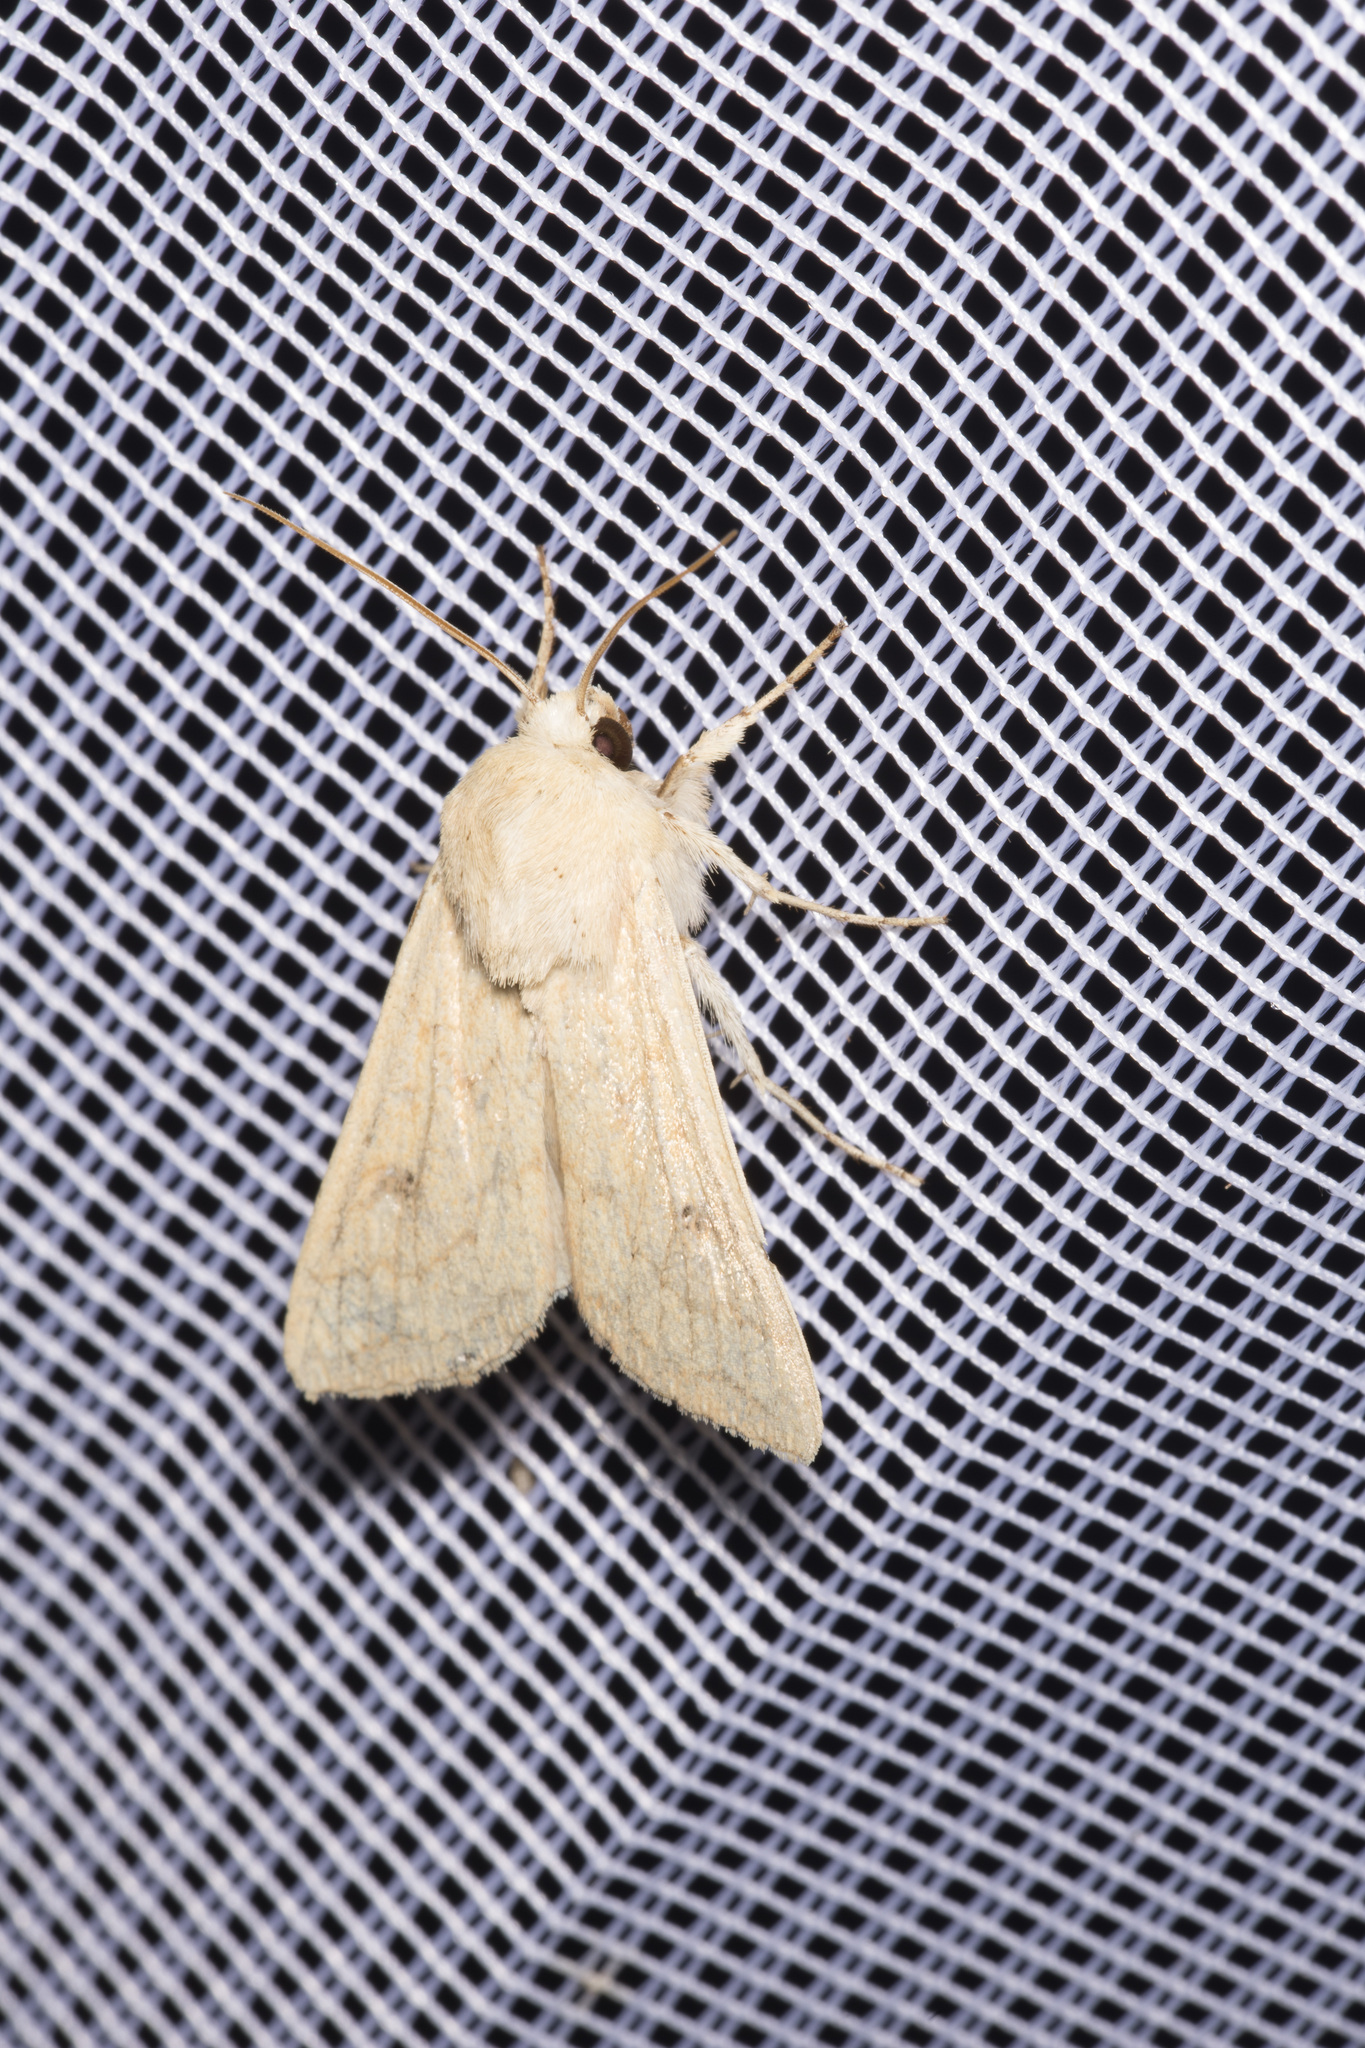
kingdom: Animalia
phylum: Arthropoda
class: Insecta
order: Lepidoptera
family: Noctuidae
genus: Mythimna
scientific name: Mythimna vitellina
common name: Delicate
